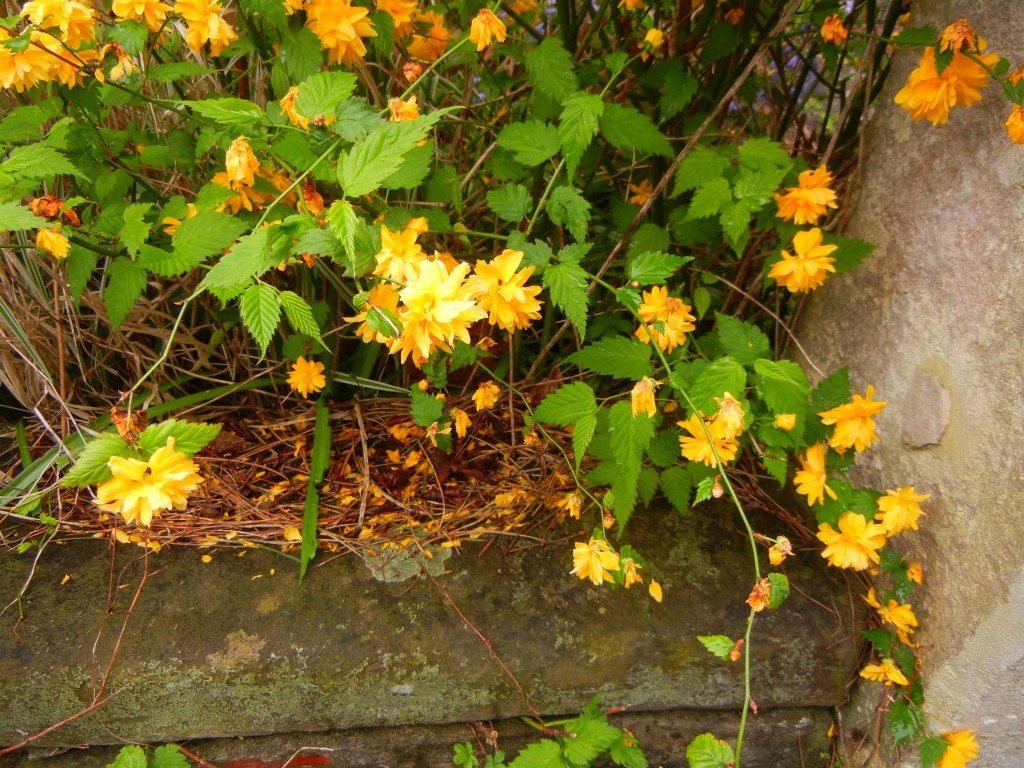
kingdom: Plantae
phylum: Tracheophyta
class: Magnoliopsida
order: Rosales
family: Rosaceae
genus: Kerria
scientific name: Kerria japonica
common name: Japanese kerria
